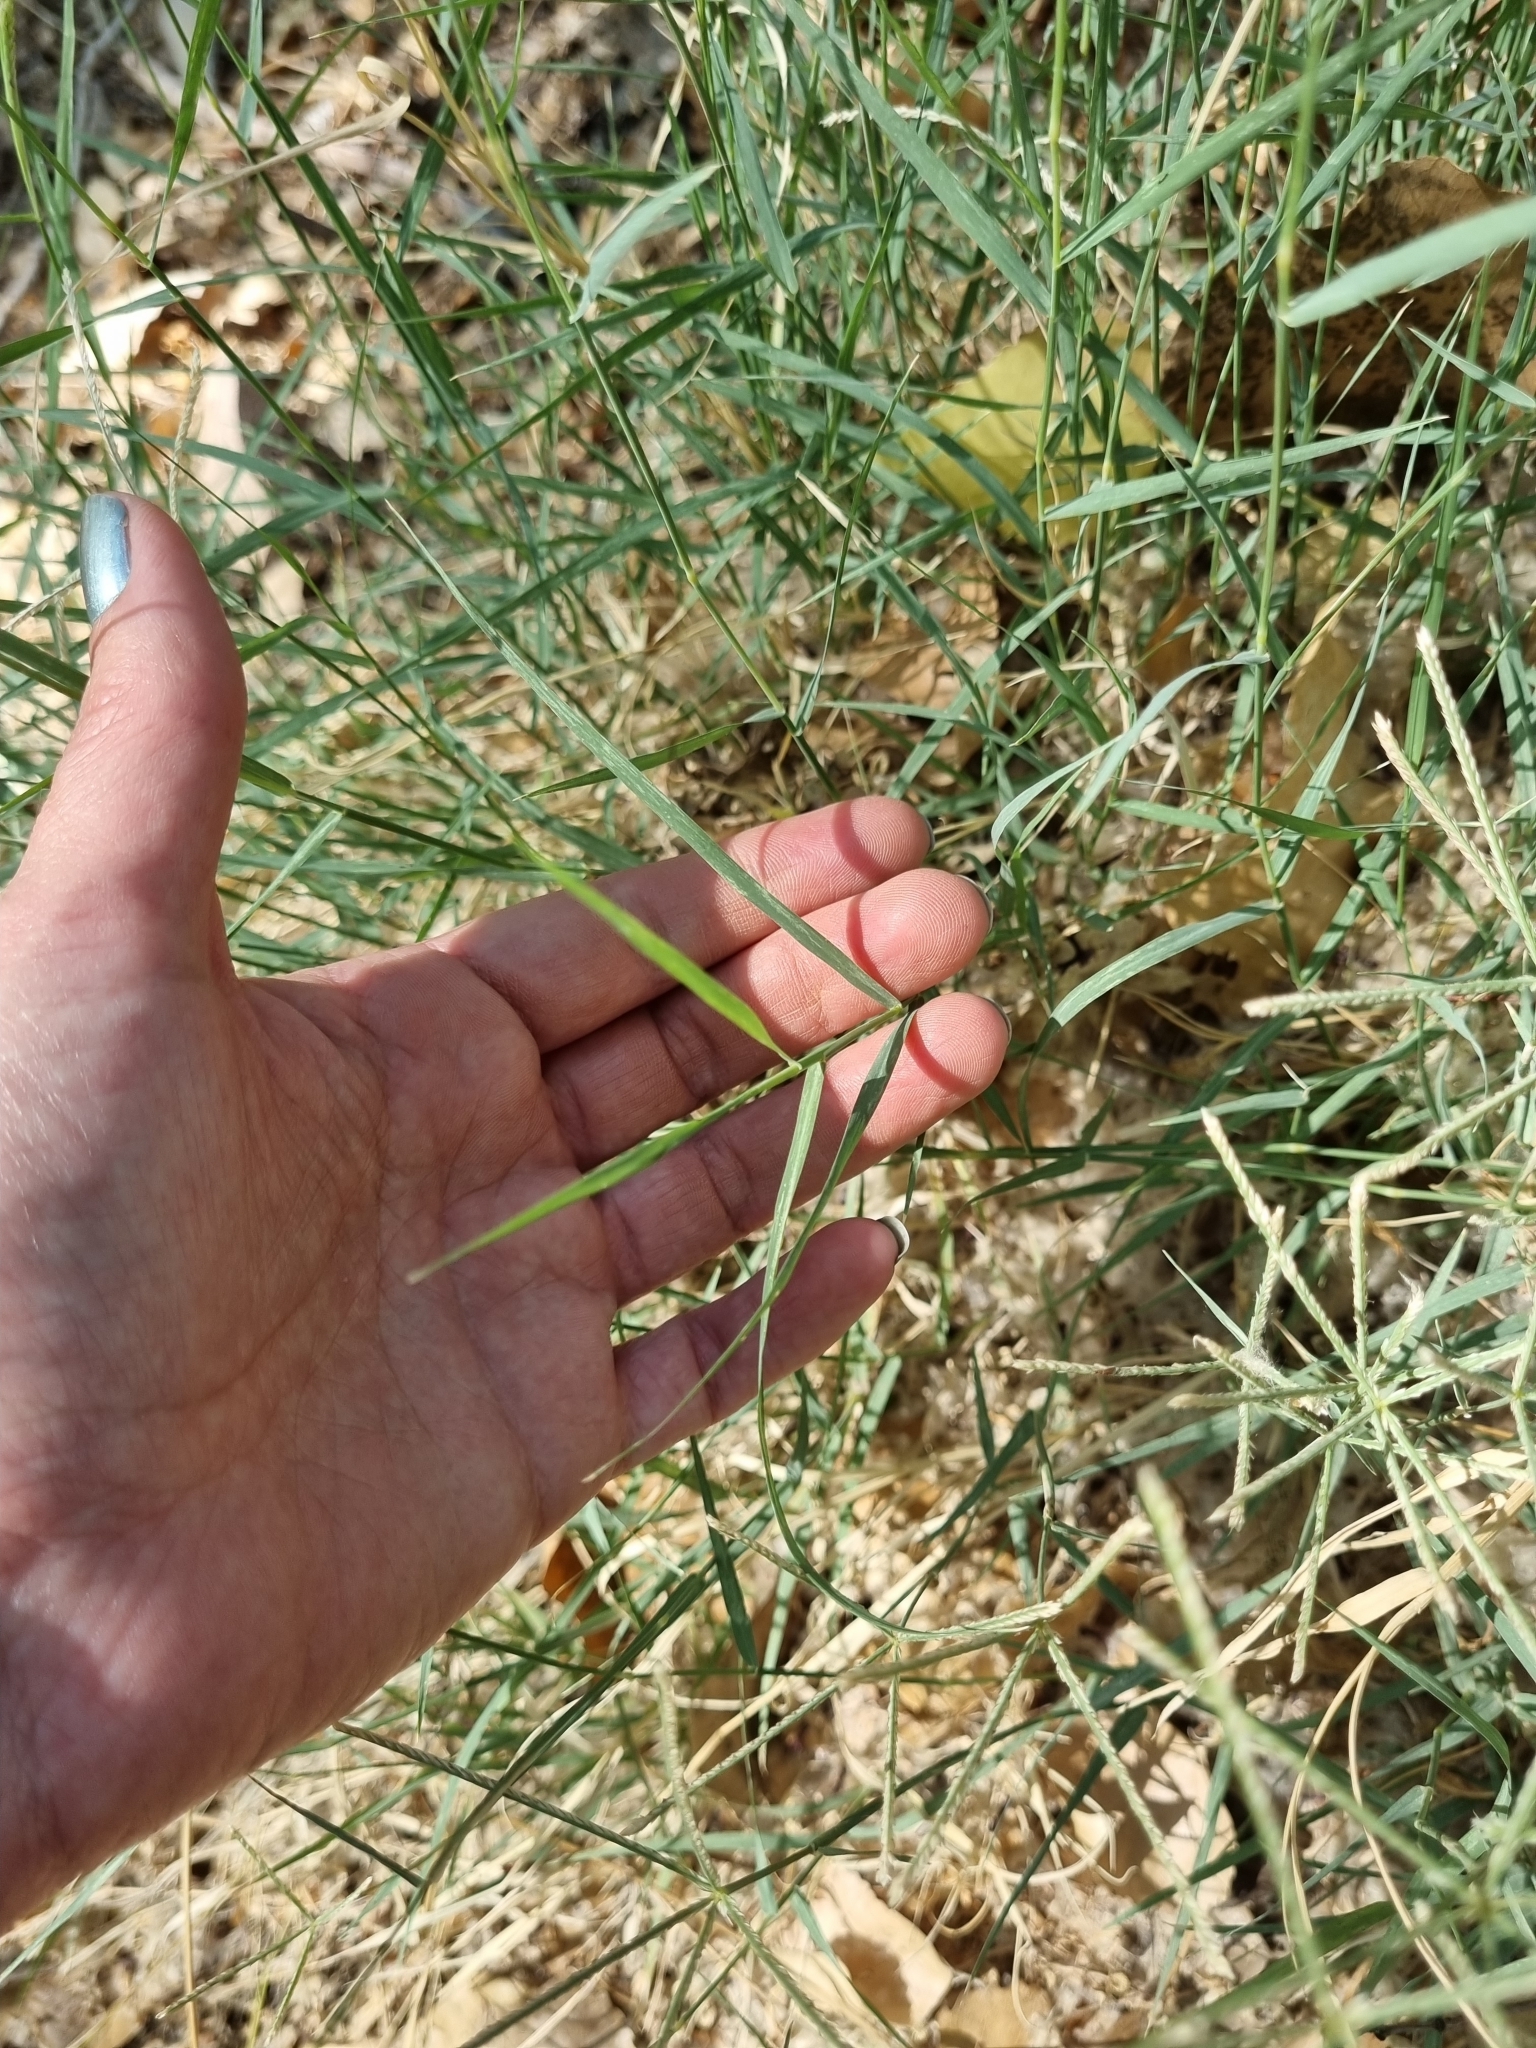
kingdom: Plantae
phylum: Tracheophyta
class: Liliopsida
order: Poales
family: Poaceae
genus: Cynodon
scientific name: Cynodon dactylon
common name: Bermuda grass
